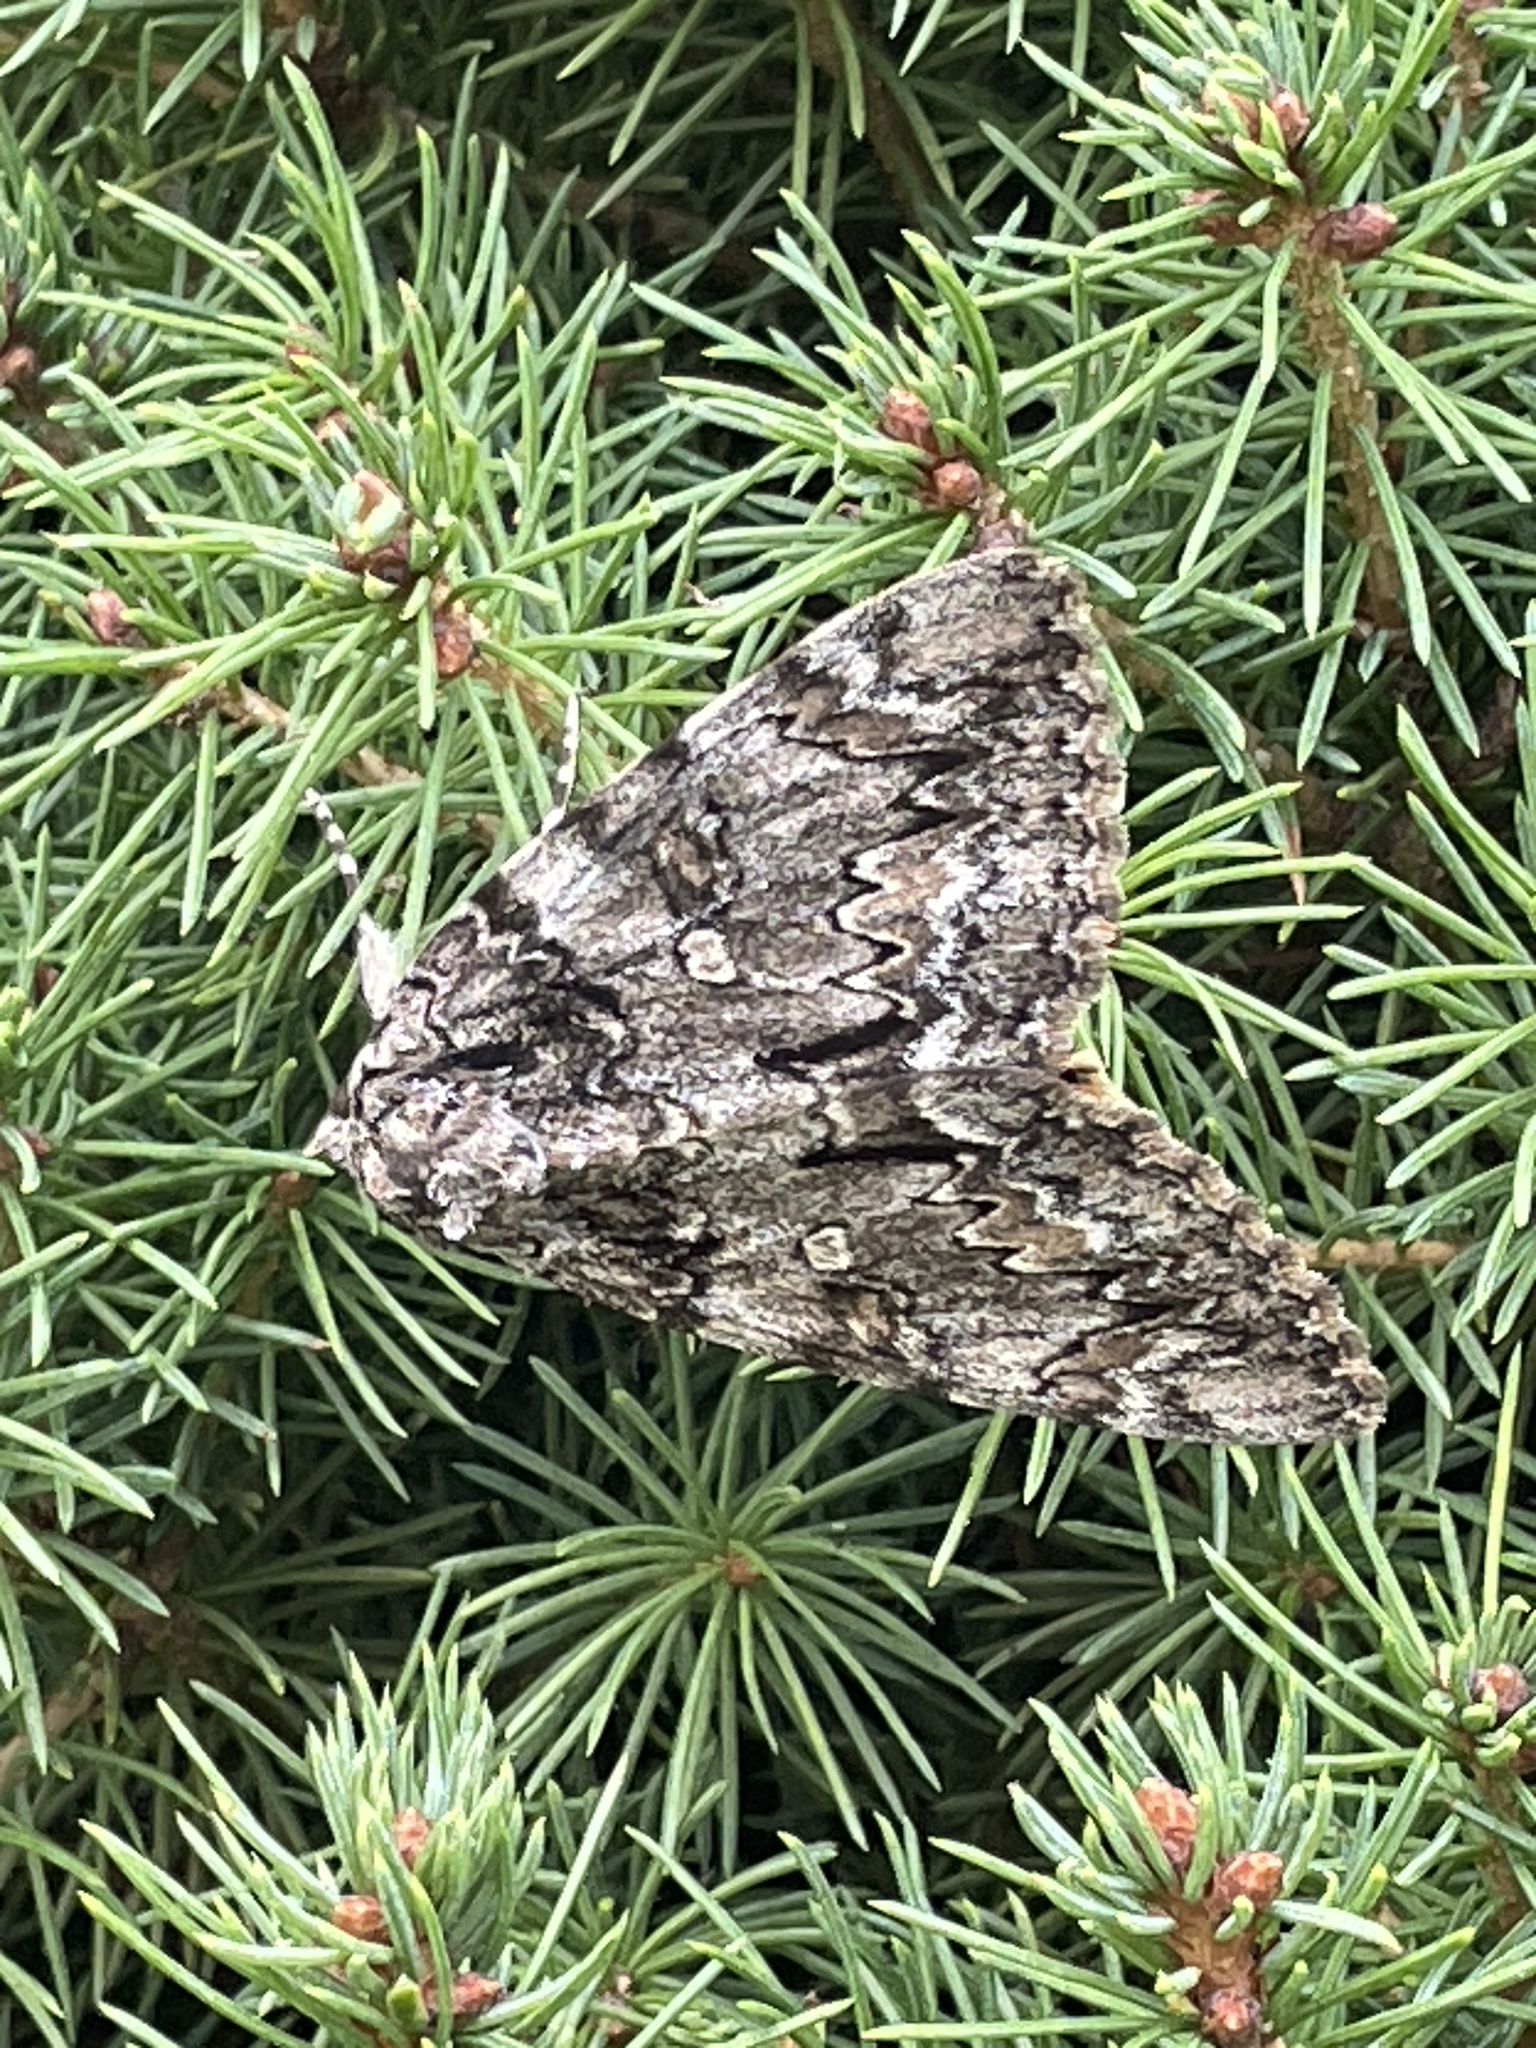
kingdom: Animalia
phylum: Arthropoda
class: Insecta
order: Lepidoptera
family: Erebidae
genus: Catocala
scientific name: Catocala palaeogama
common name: Oldwife underwing
